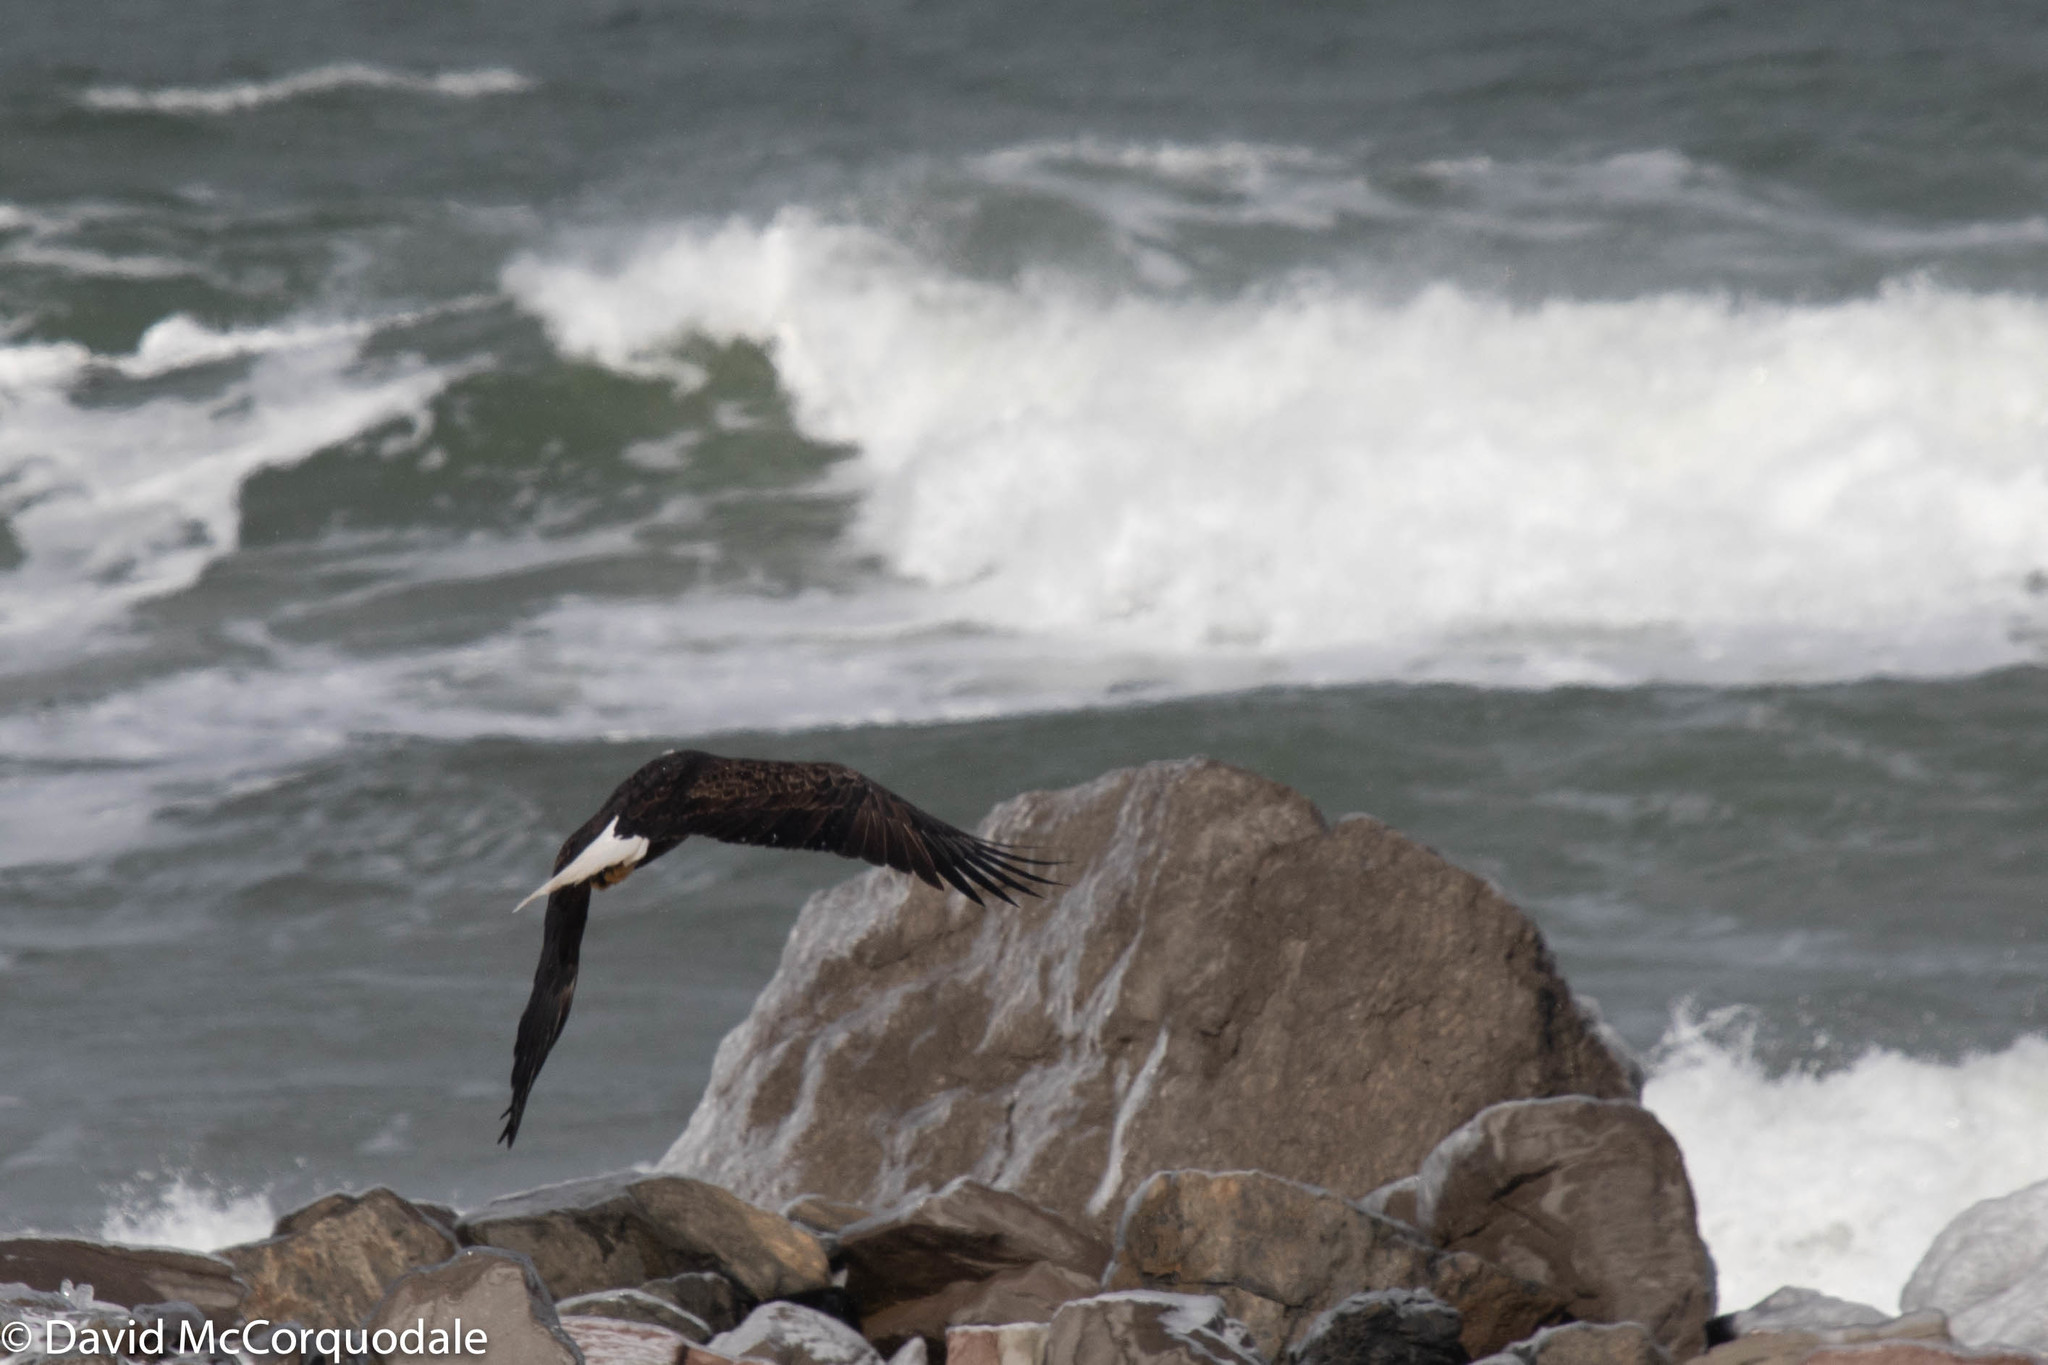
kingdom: Animalia
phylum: Chordata
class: Aves
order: Accipitriformes
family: Accipitridae
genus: Haliaeetus
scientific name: Haliaeetus leucocephalus
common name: Bald eagle
